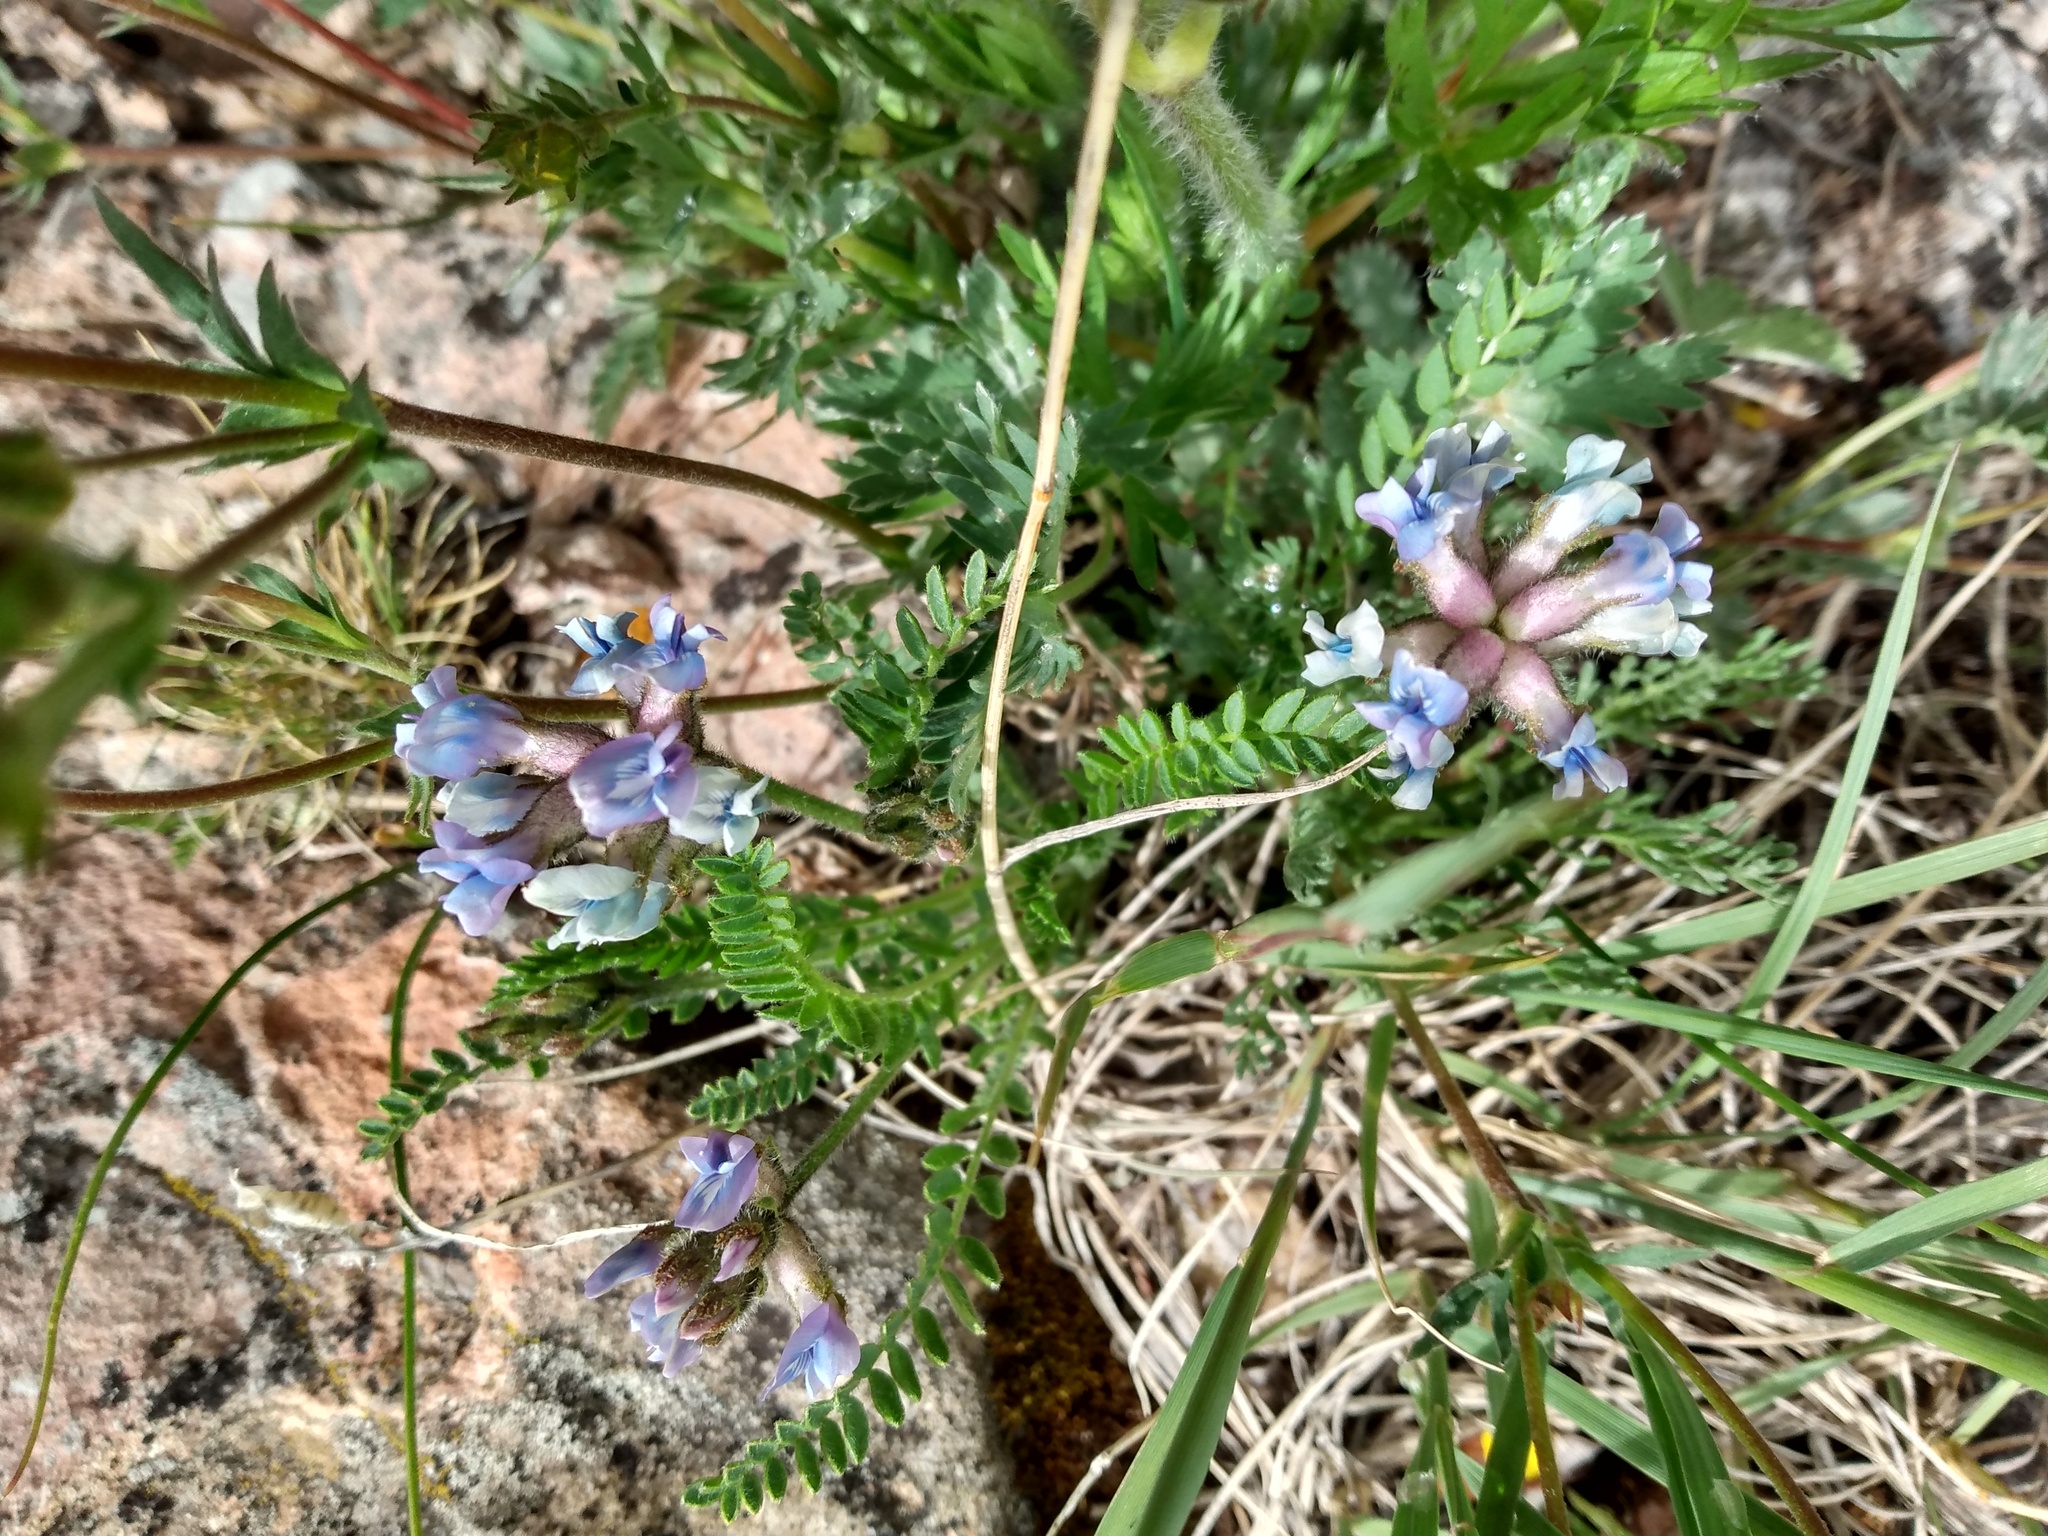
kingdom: Plantae
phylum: Tracheophyta
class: Magnoliopsida
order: Fabales
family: Fabaceae
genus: Oxytropis
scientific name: Oxytropis borealis
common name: Boreal locoweed
